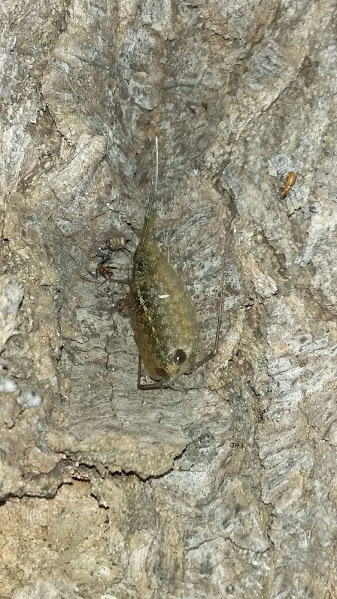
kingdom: Animalia
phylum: Arthropoda
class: Malacostraca
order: Isopoda
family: Ligiidae
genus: Ligia
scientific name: Ligia exotica
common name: Wharf roach
